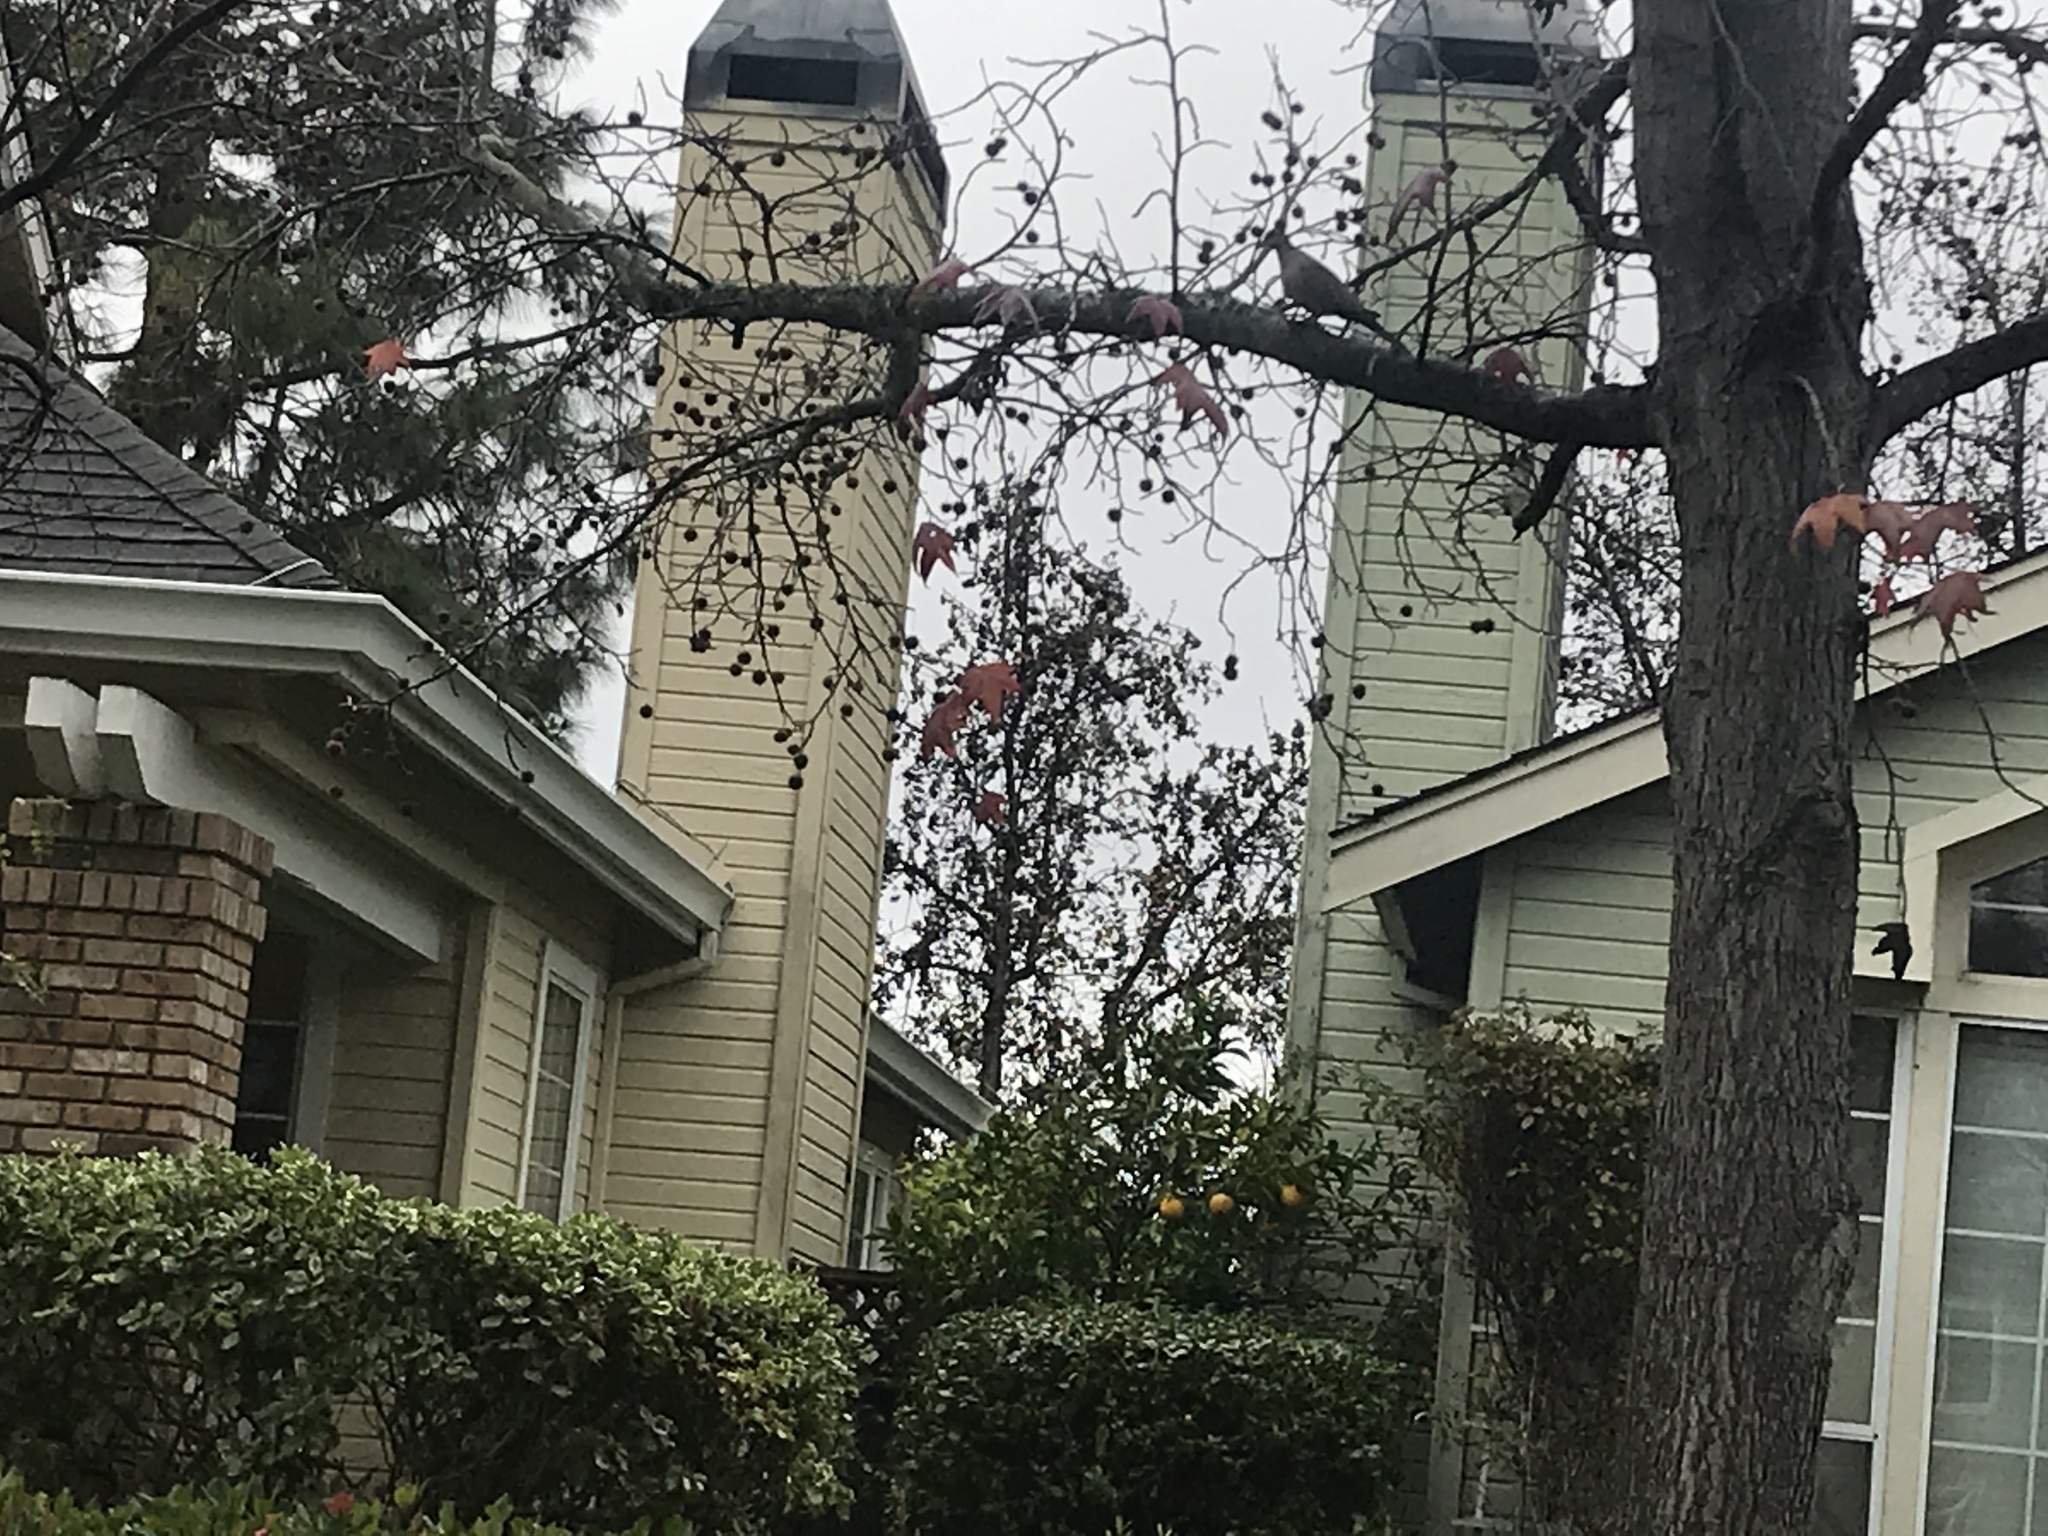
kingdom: Animalia
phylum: Chordata
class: Aves
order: Columbiformes
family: Columbidae
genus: Zenaida
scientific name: Zenaida macroura
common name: Mourning dove
